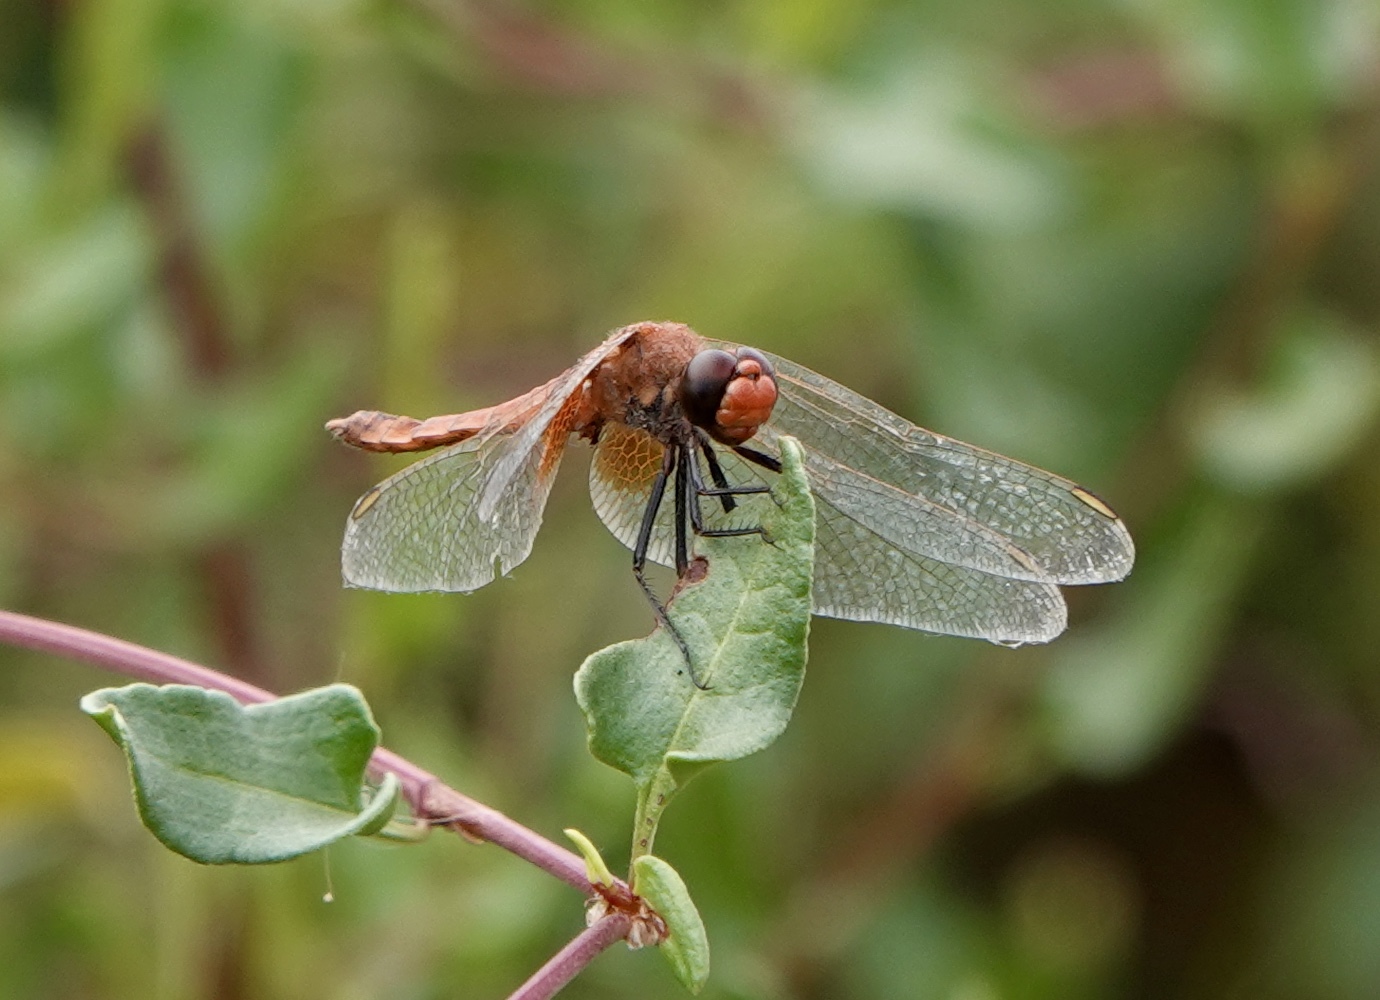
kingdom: Animalia
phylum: Arthropoda
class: Insecta
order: Odonata
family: Libellulidae
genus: Erythrodiplax
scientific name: Erythrodiplax corallina
